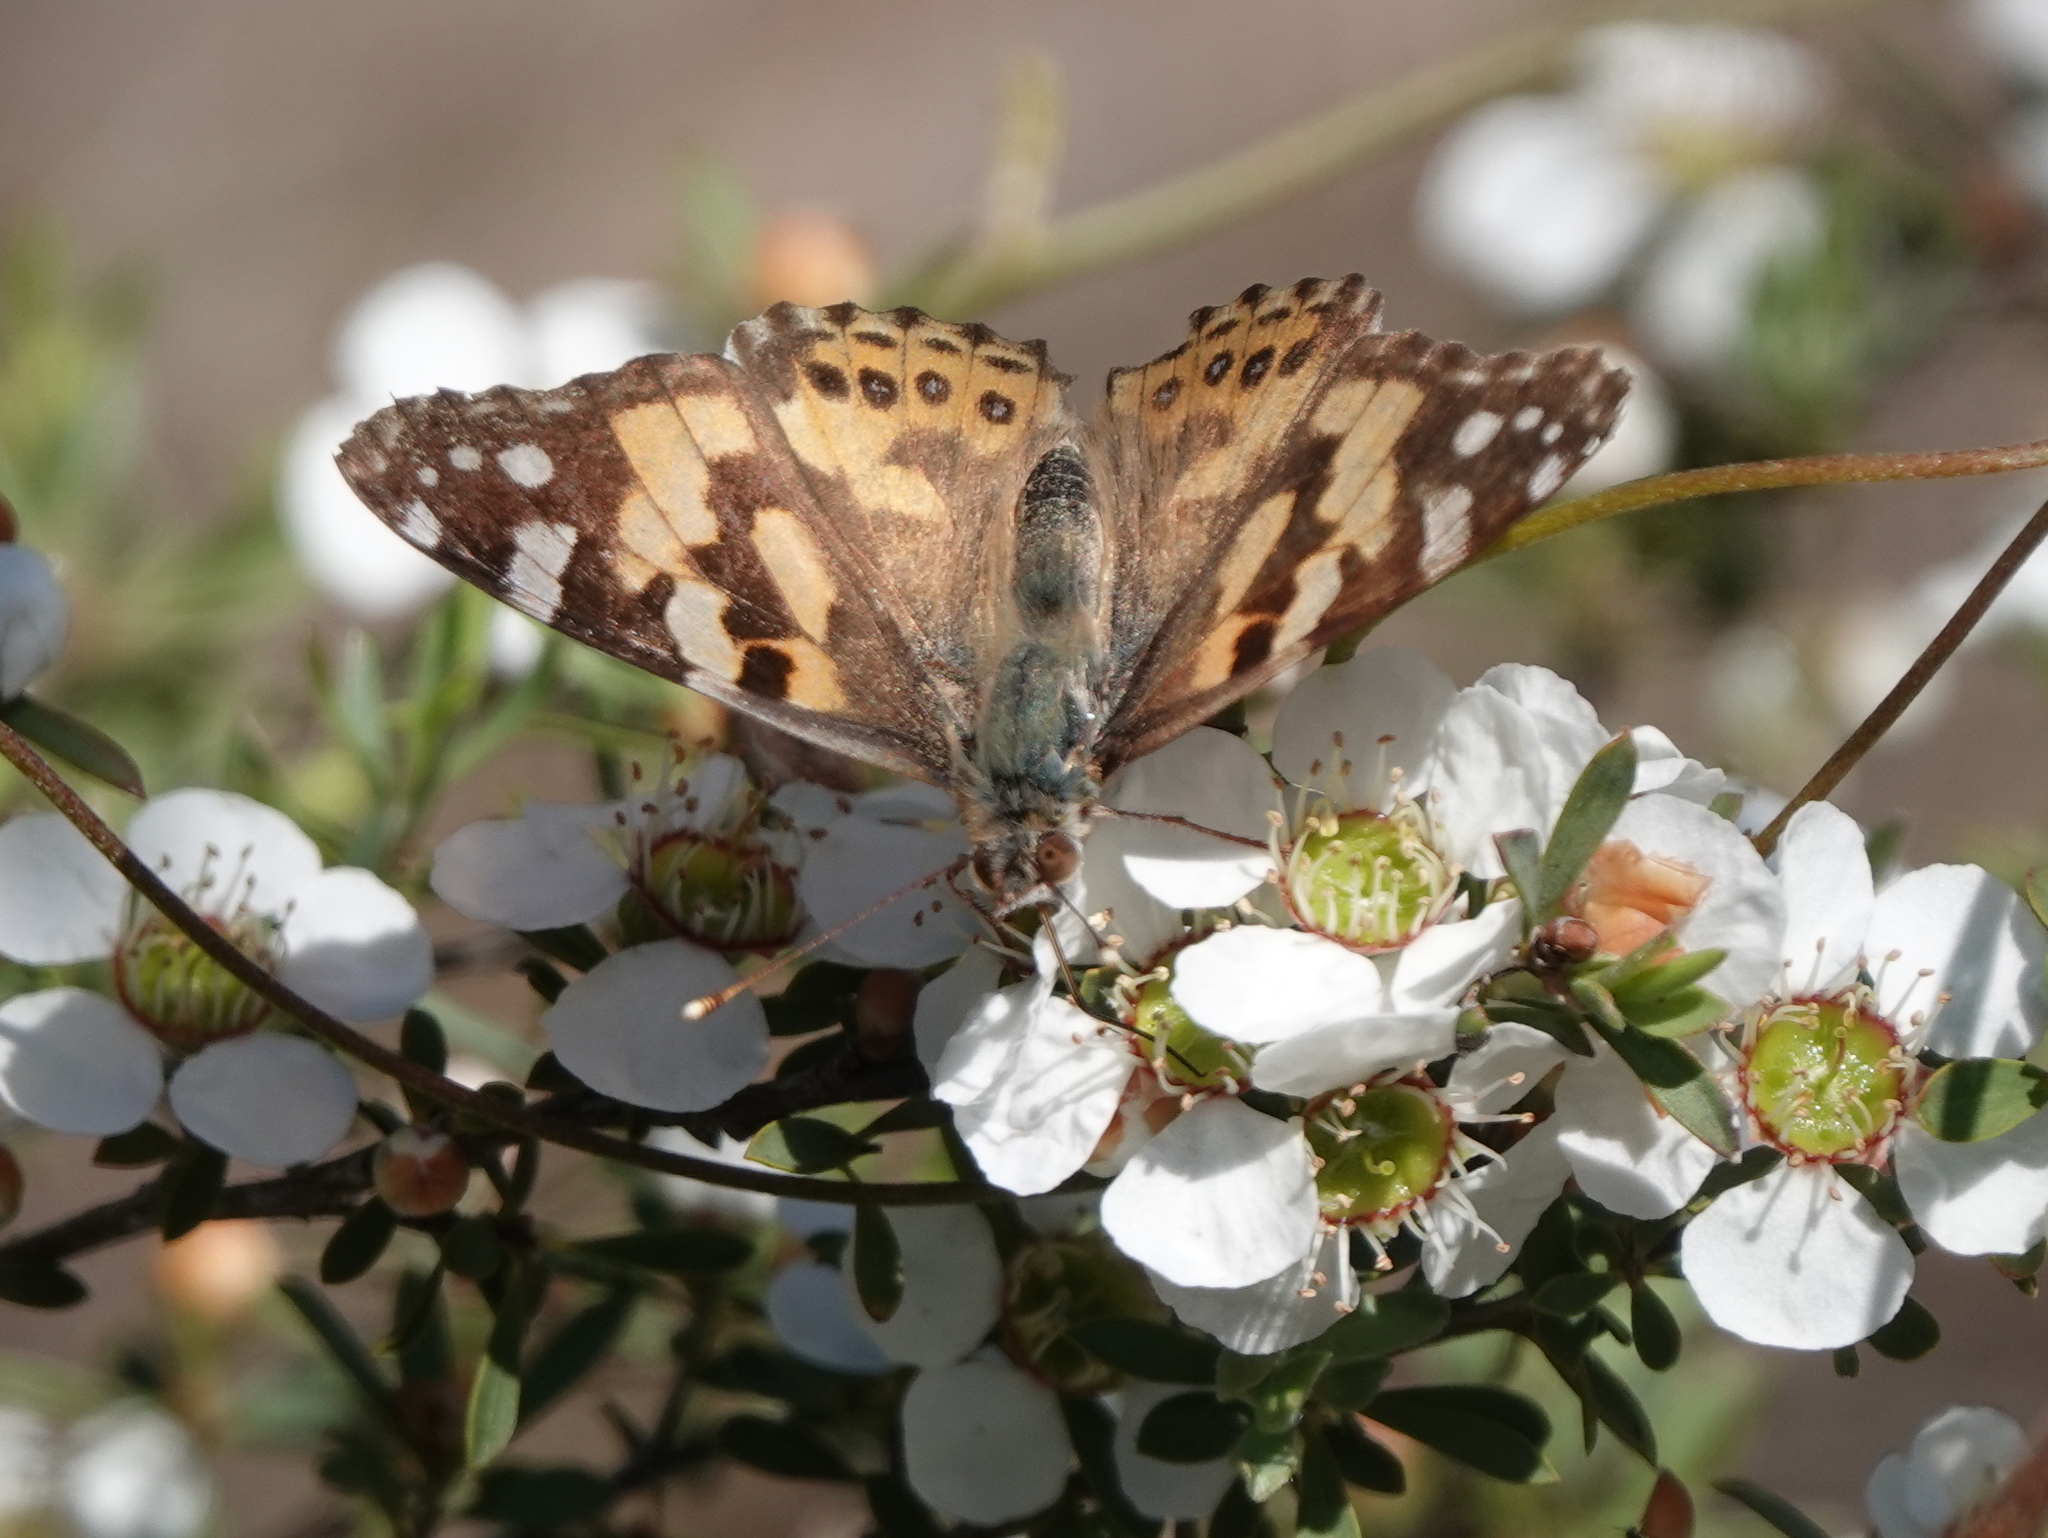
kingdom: Animalia
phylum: Arthropoda
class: Insecta
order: Lepidoptera
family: Nymphalidae
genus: Vanessa
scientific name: Vanessa kershawi
